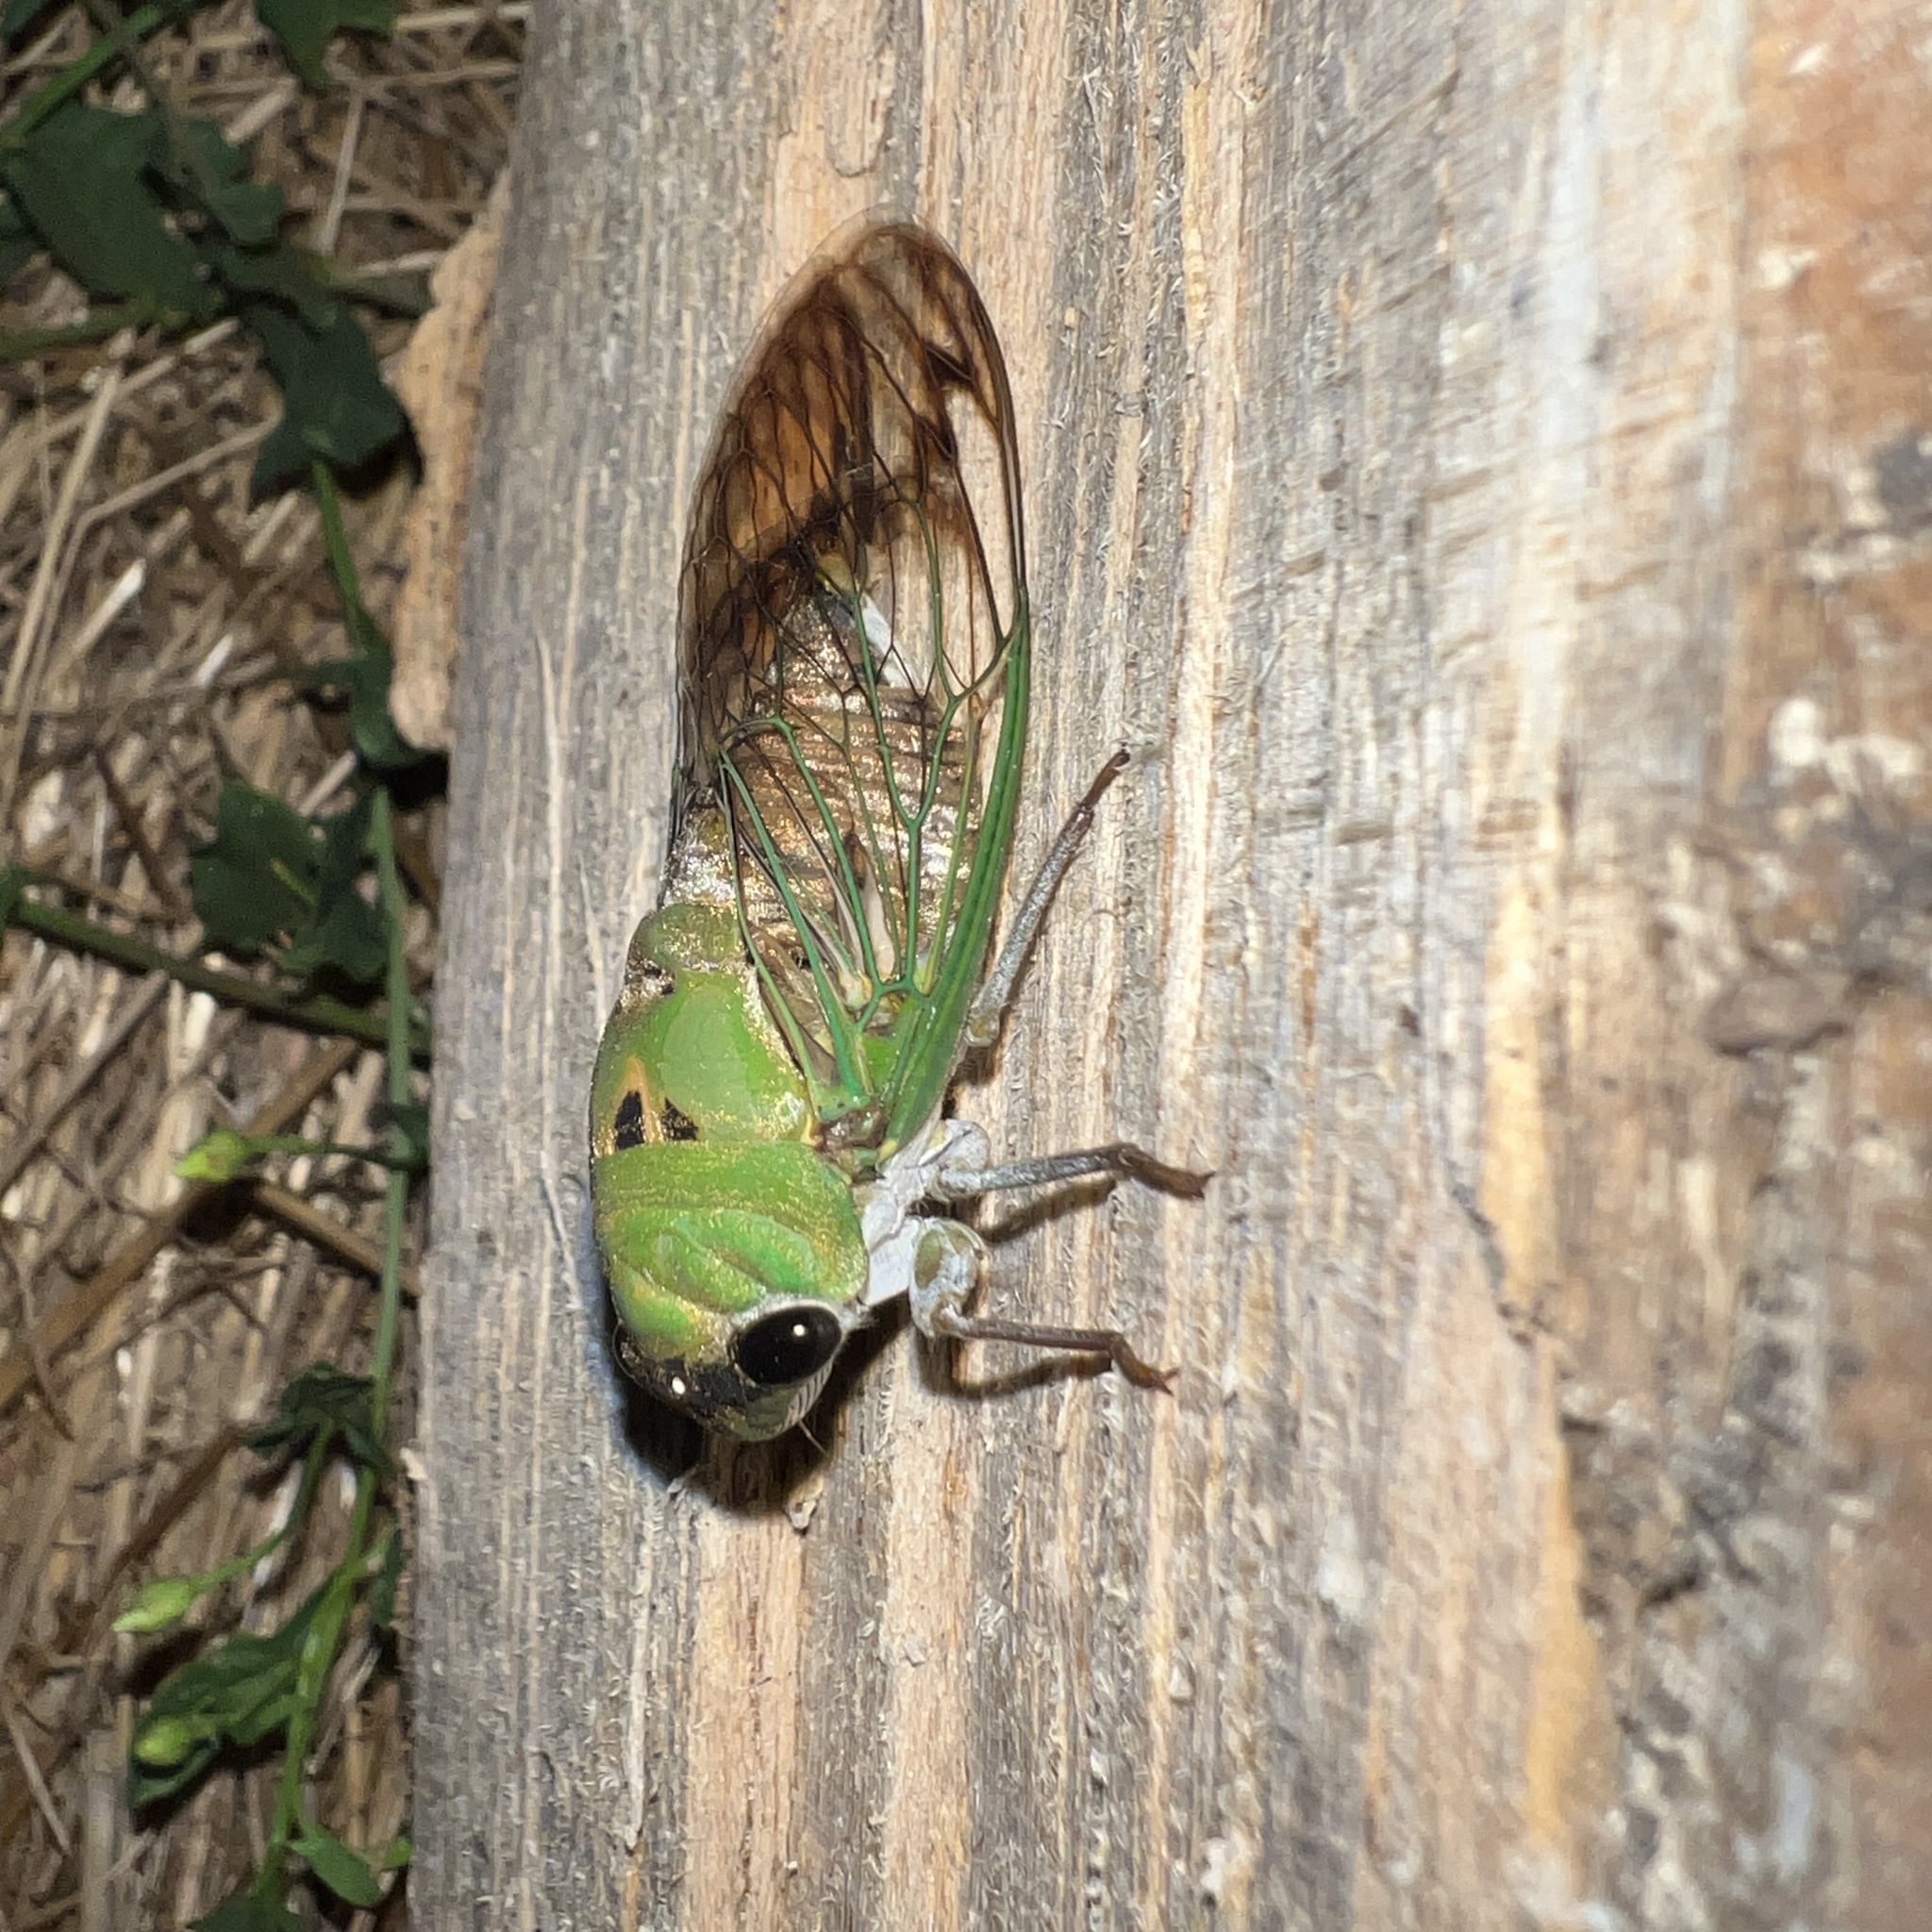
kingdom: Animalia
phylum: Arthropoda
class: Insecta
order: Hemiptera
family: Cicadidae
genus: Neotibicen
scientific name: Neotibicen superbus
